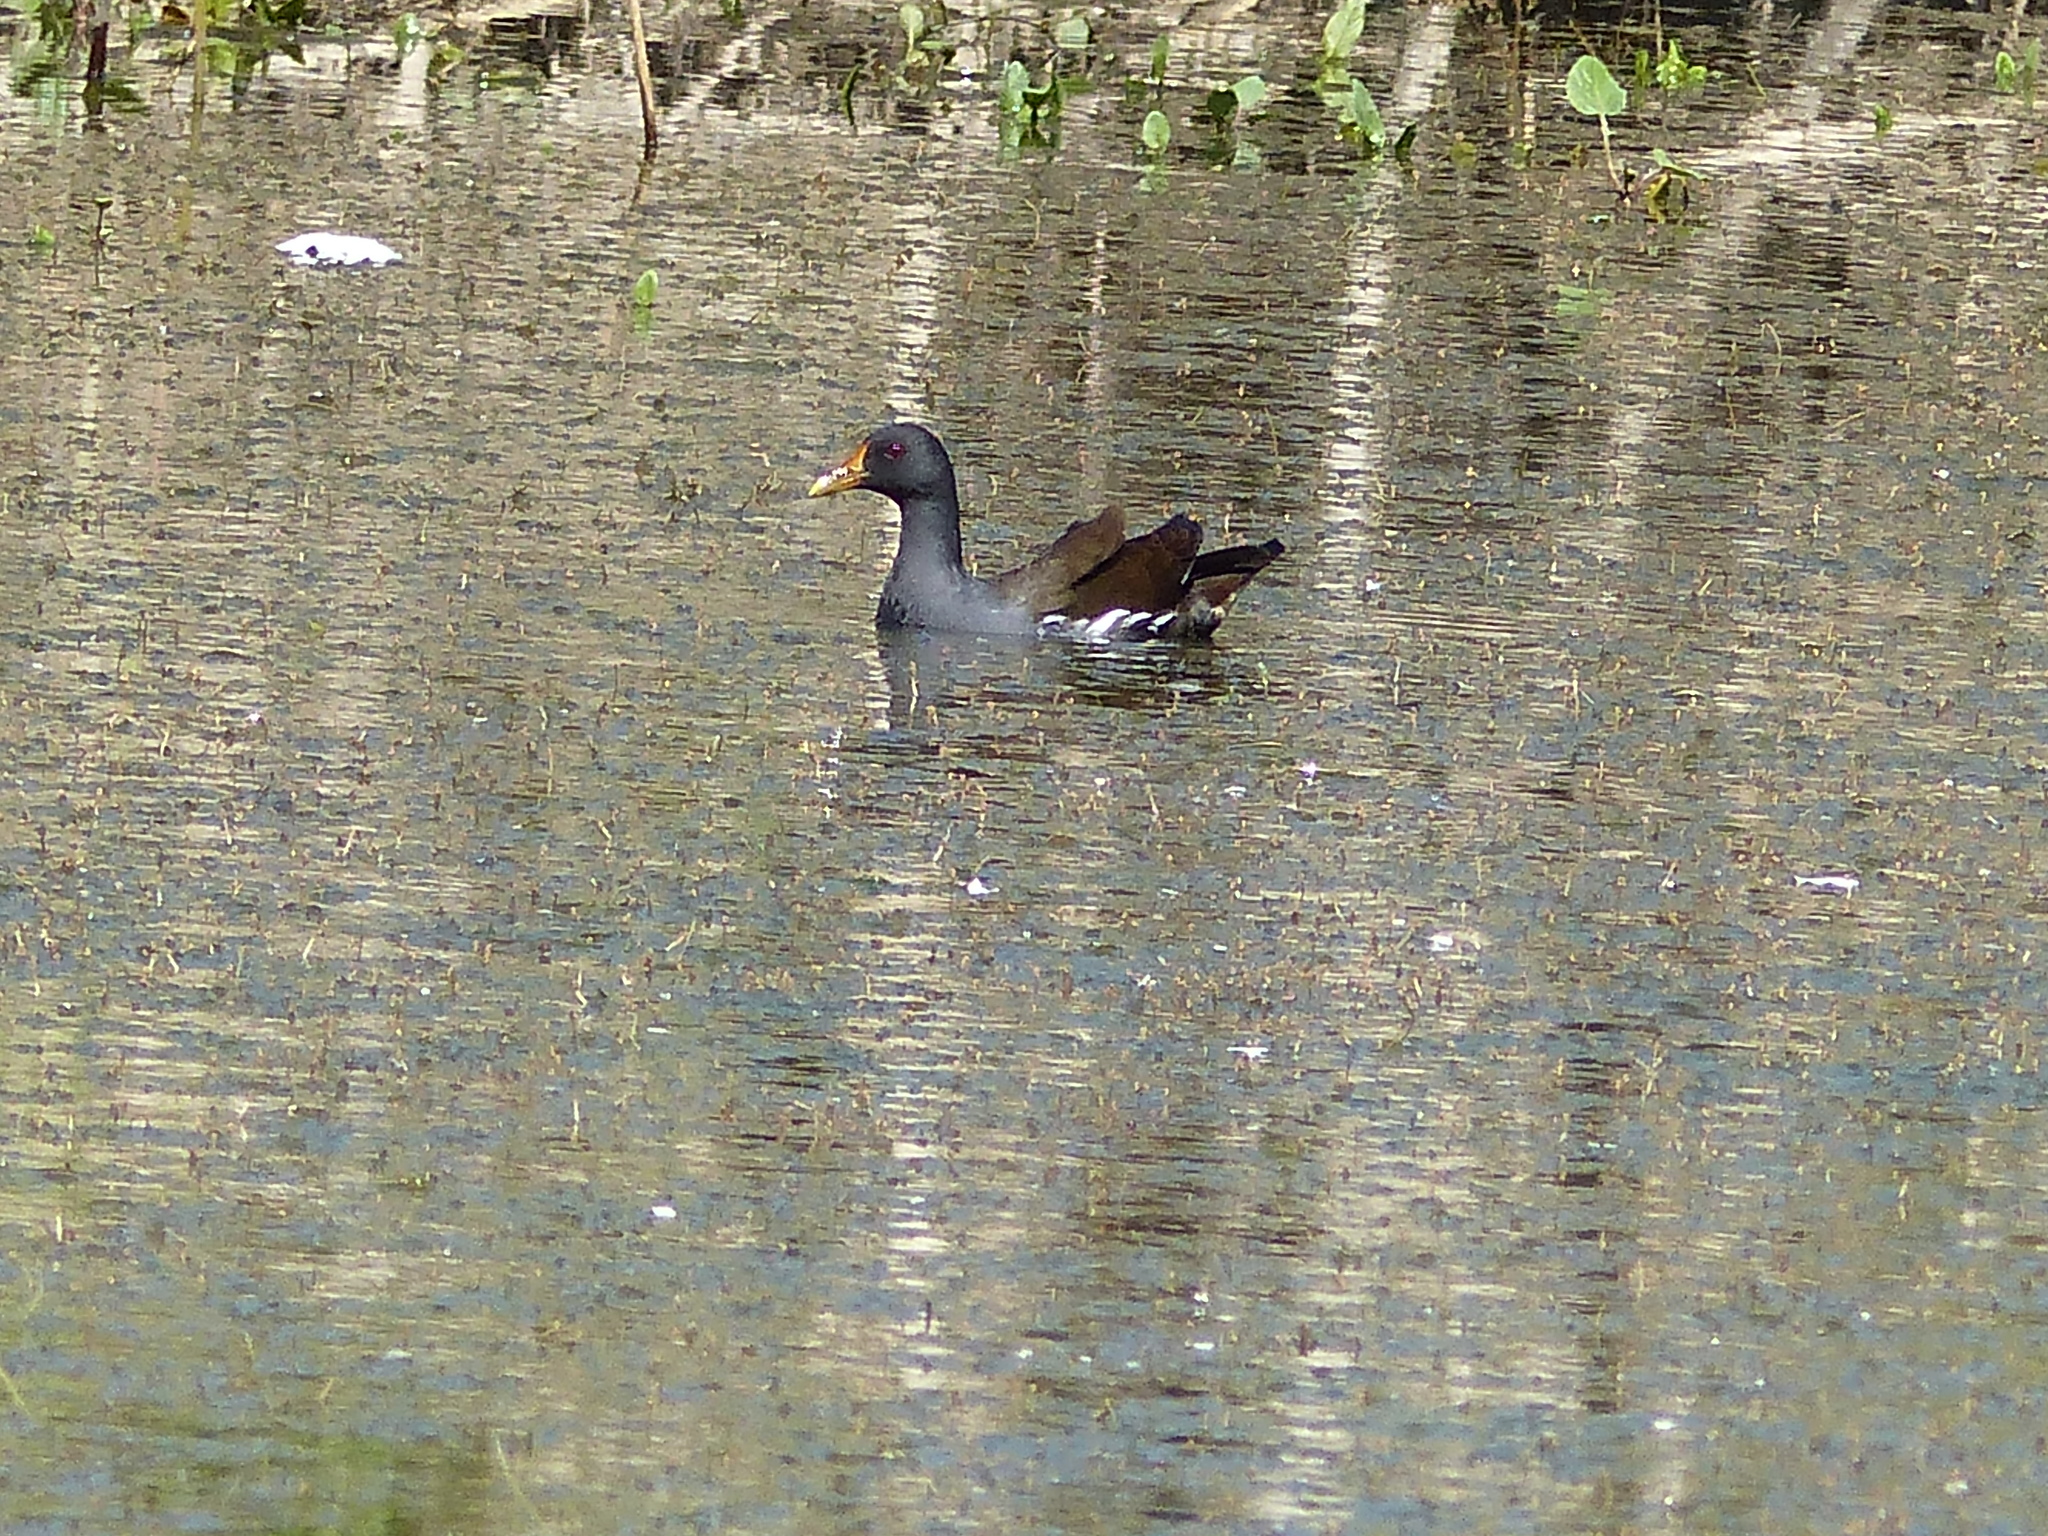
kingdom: Animalia
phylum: Chordata
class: Aves
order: Gruiformes
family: Rallidae
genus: Gallinula
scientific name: Gallinula chloropus
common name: Common moorhen
